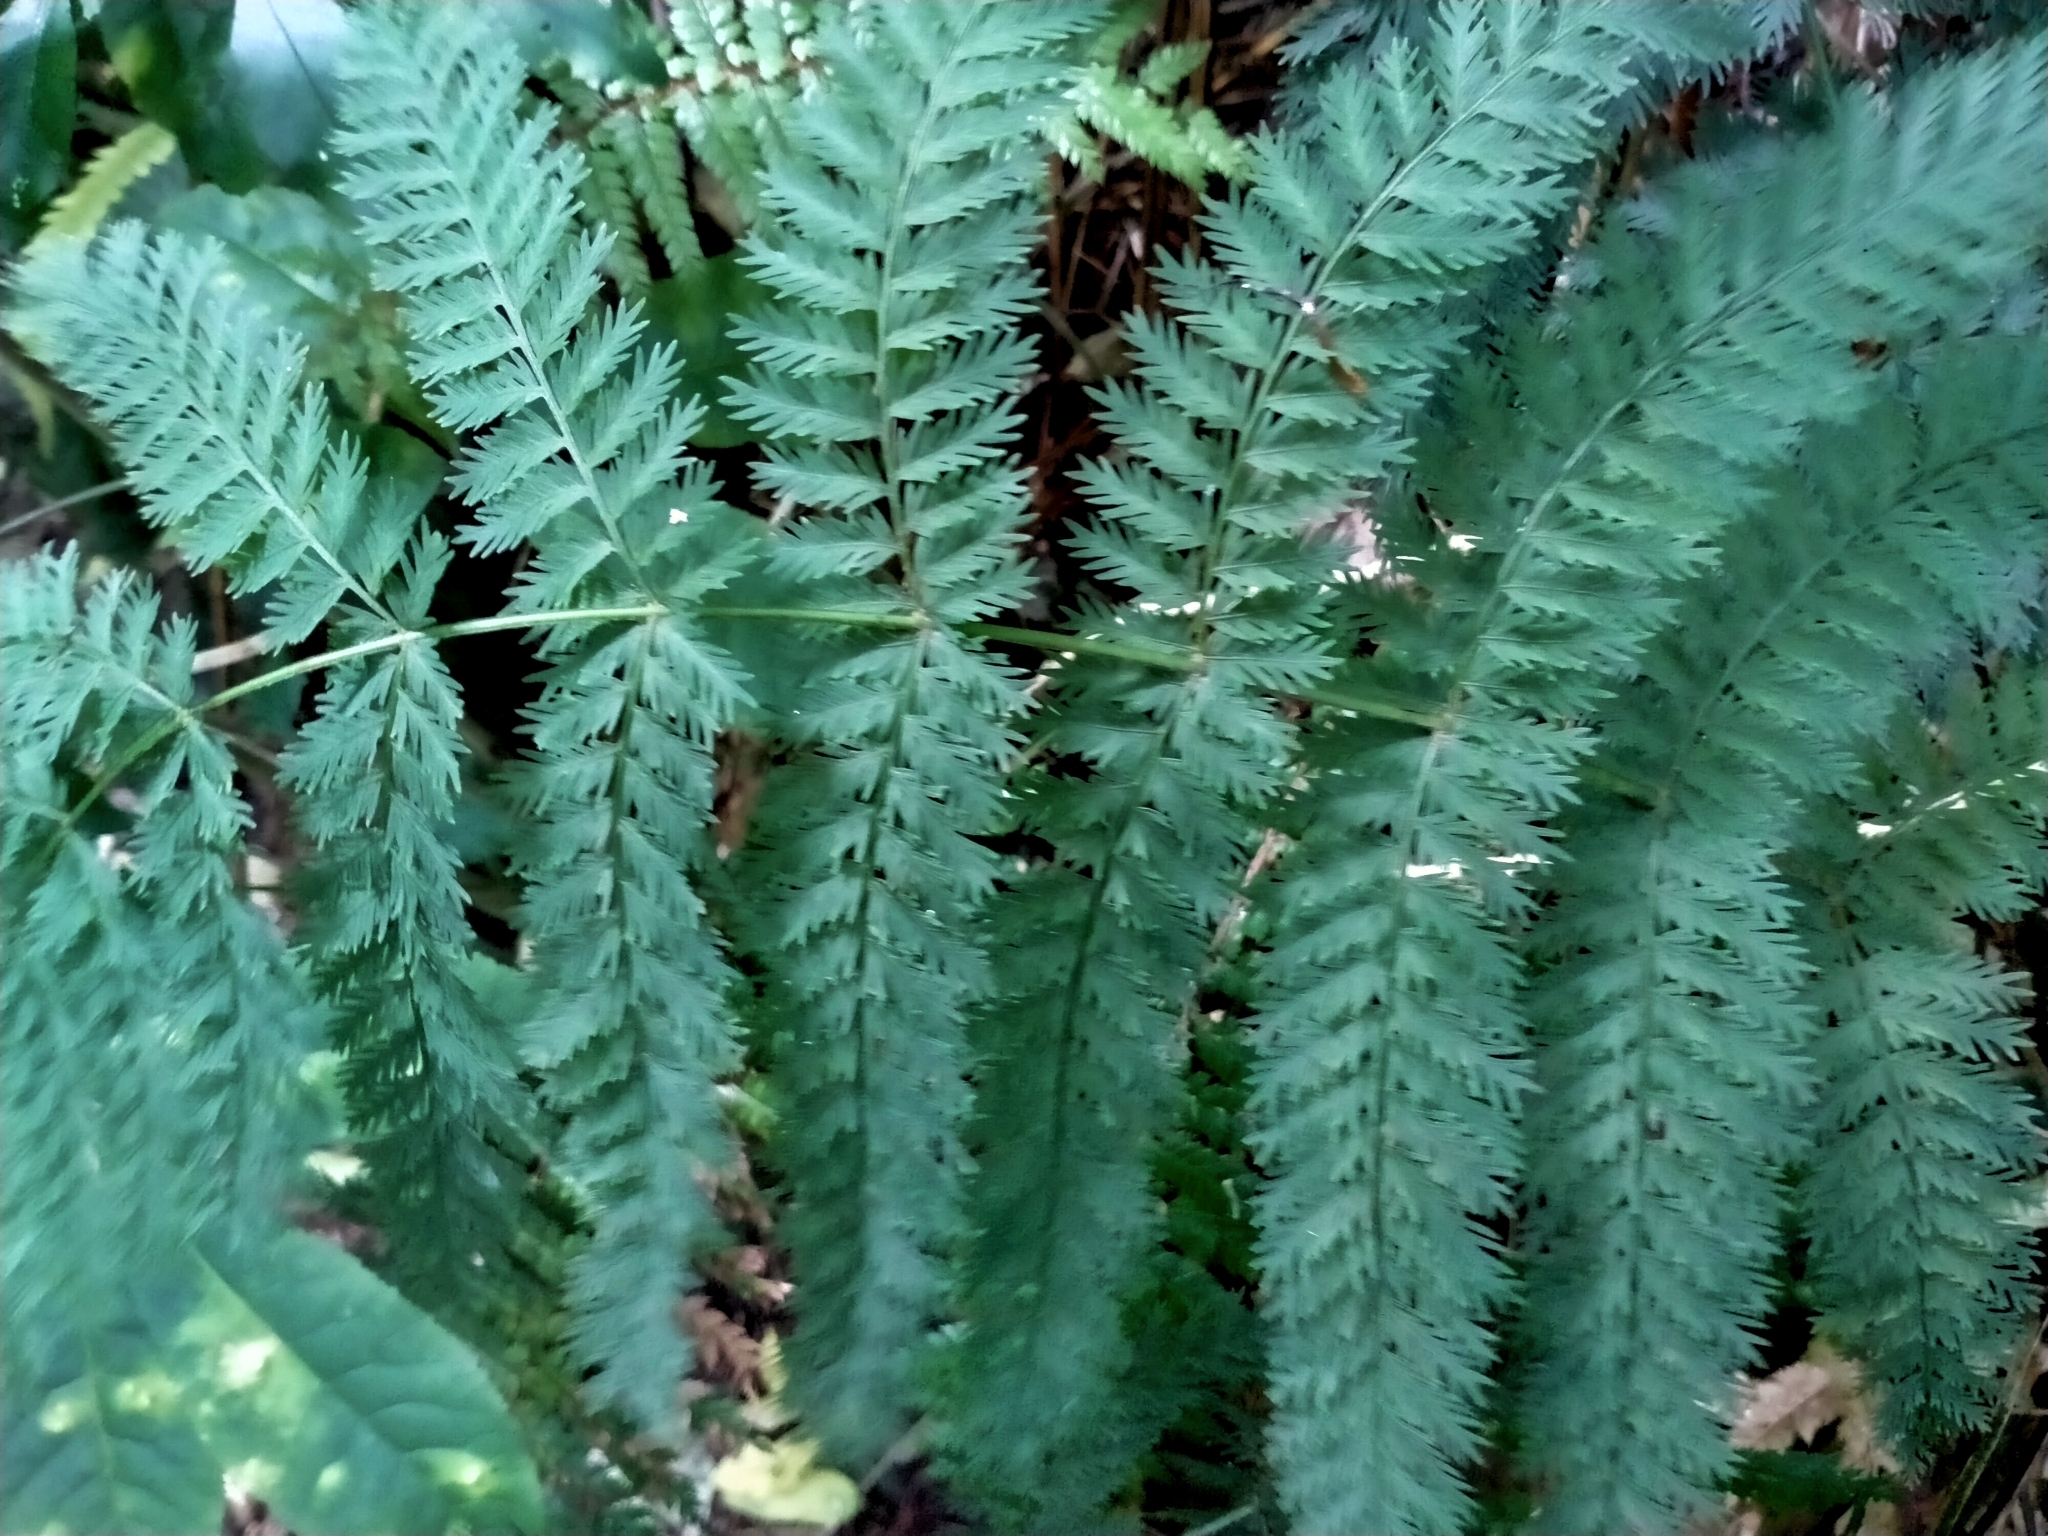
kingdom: Plantae
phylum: Tracheophyta
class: Polypodiopsida
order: Osmundales
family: Osmundaceae
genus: Leptopteris
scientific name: Leptopteris hymenophylloides
